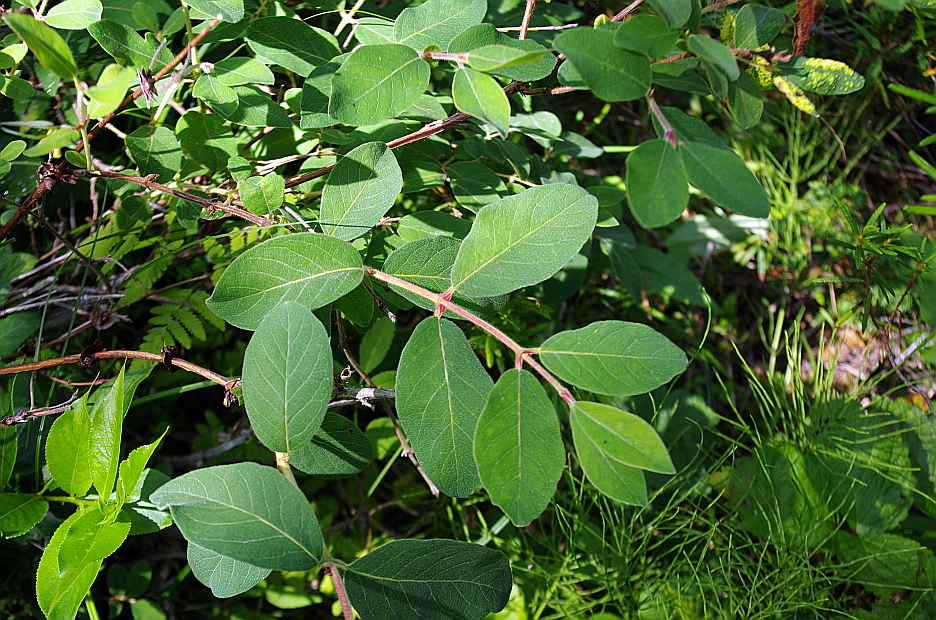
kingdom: Plantae
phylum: Tracheophyta
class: Magnoliopsida
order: Dipsacales
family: Caprifoliaceae
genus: Lonicera
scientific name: Lonicera caerulea
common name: Blue honeysuckle
